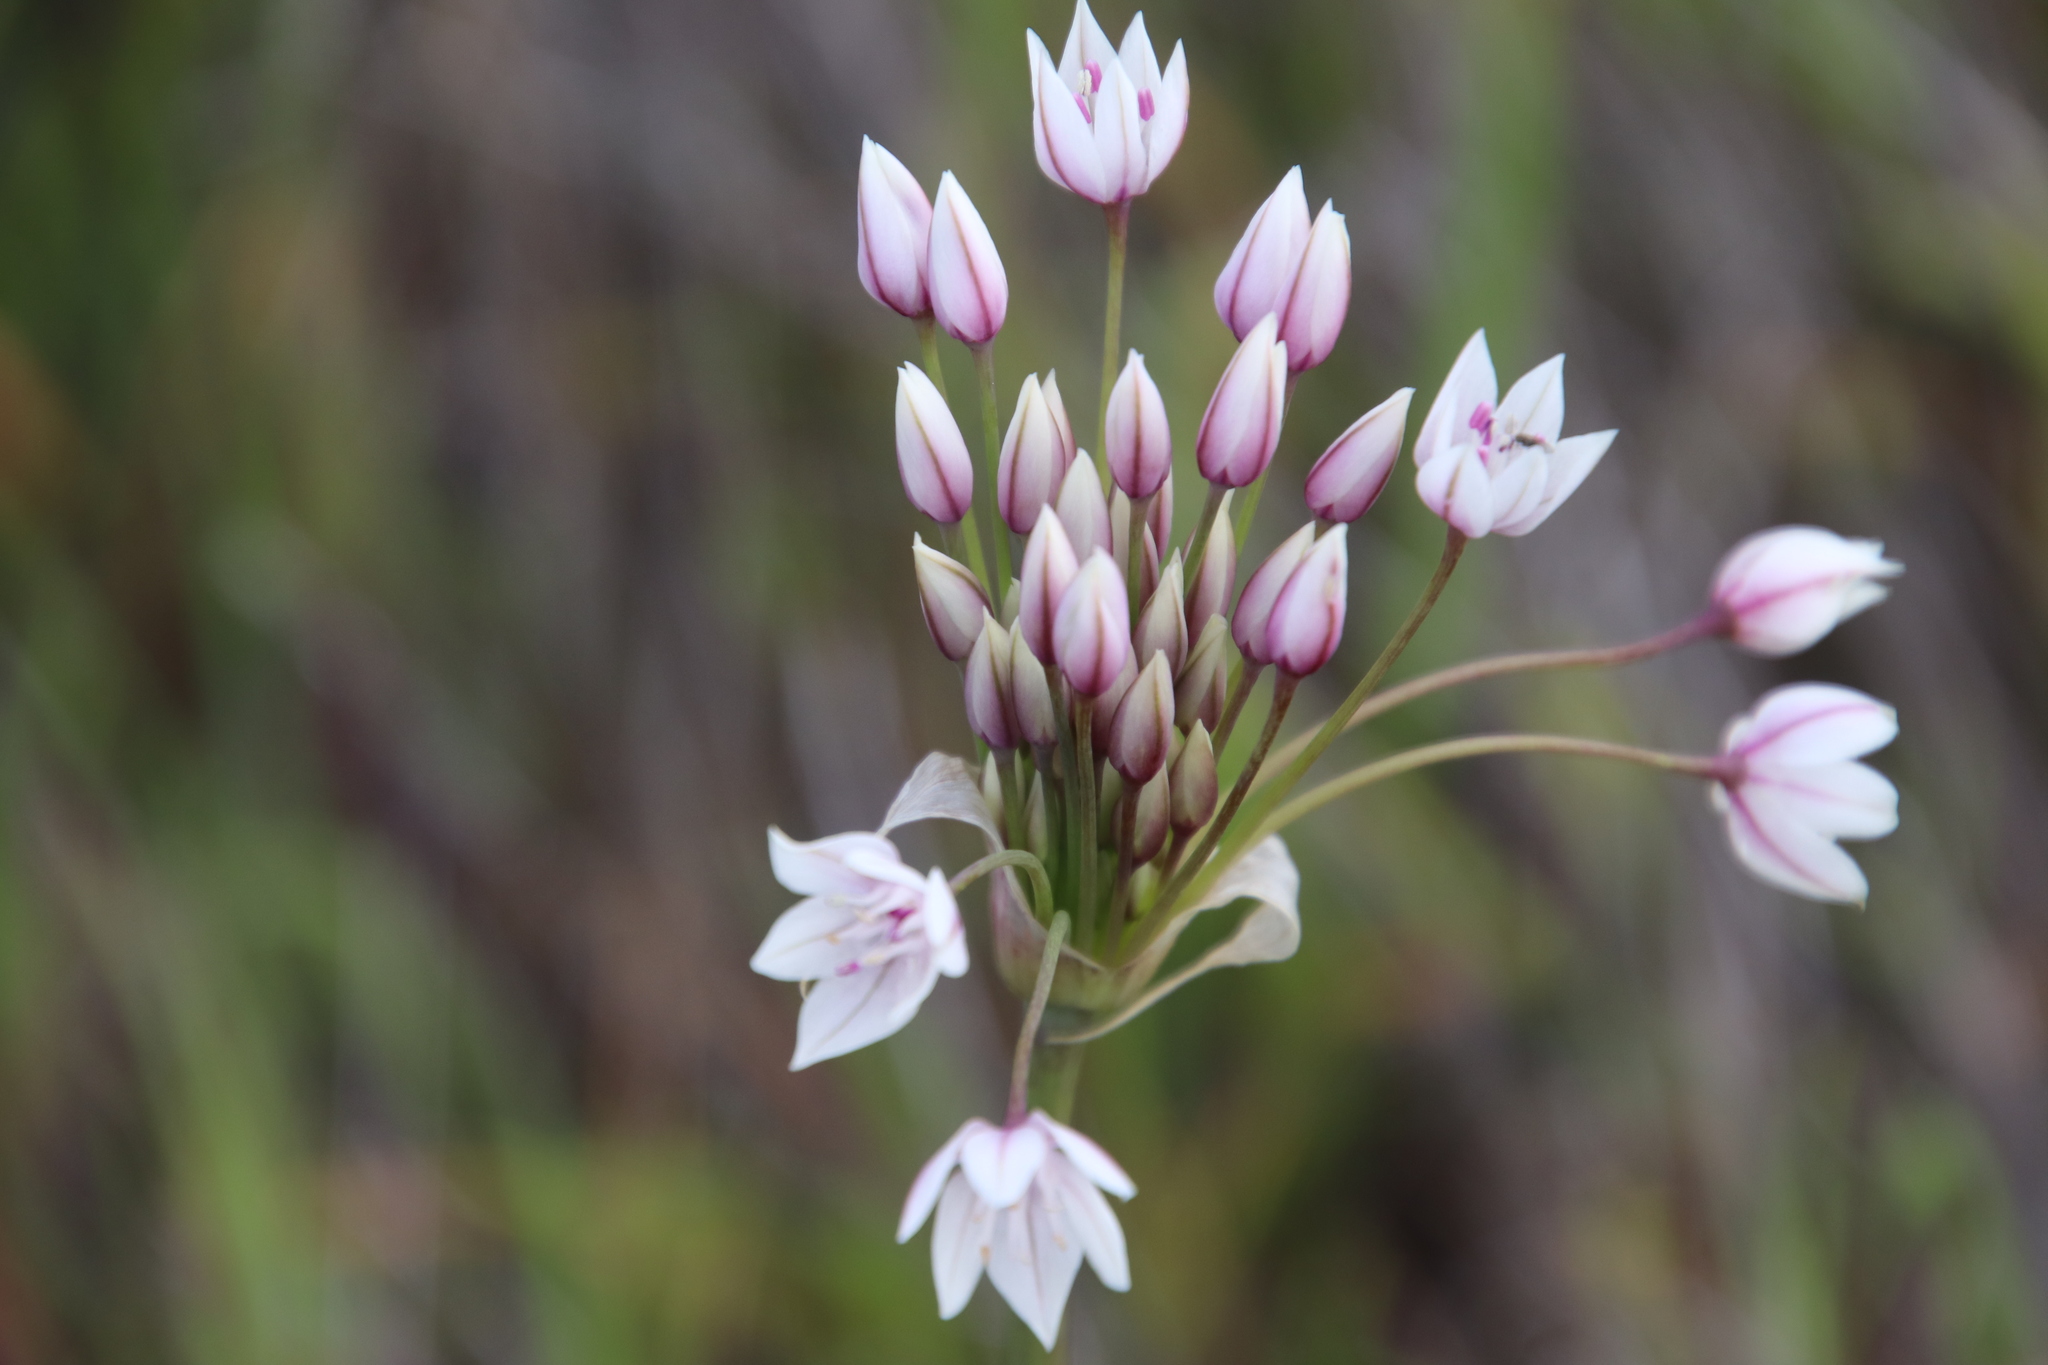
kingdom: Plantae
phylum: Tracheophyta
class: Liliopsida
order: Asparagales
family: Amaryllidaceae
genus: Allium
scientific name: Allium praecox
